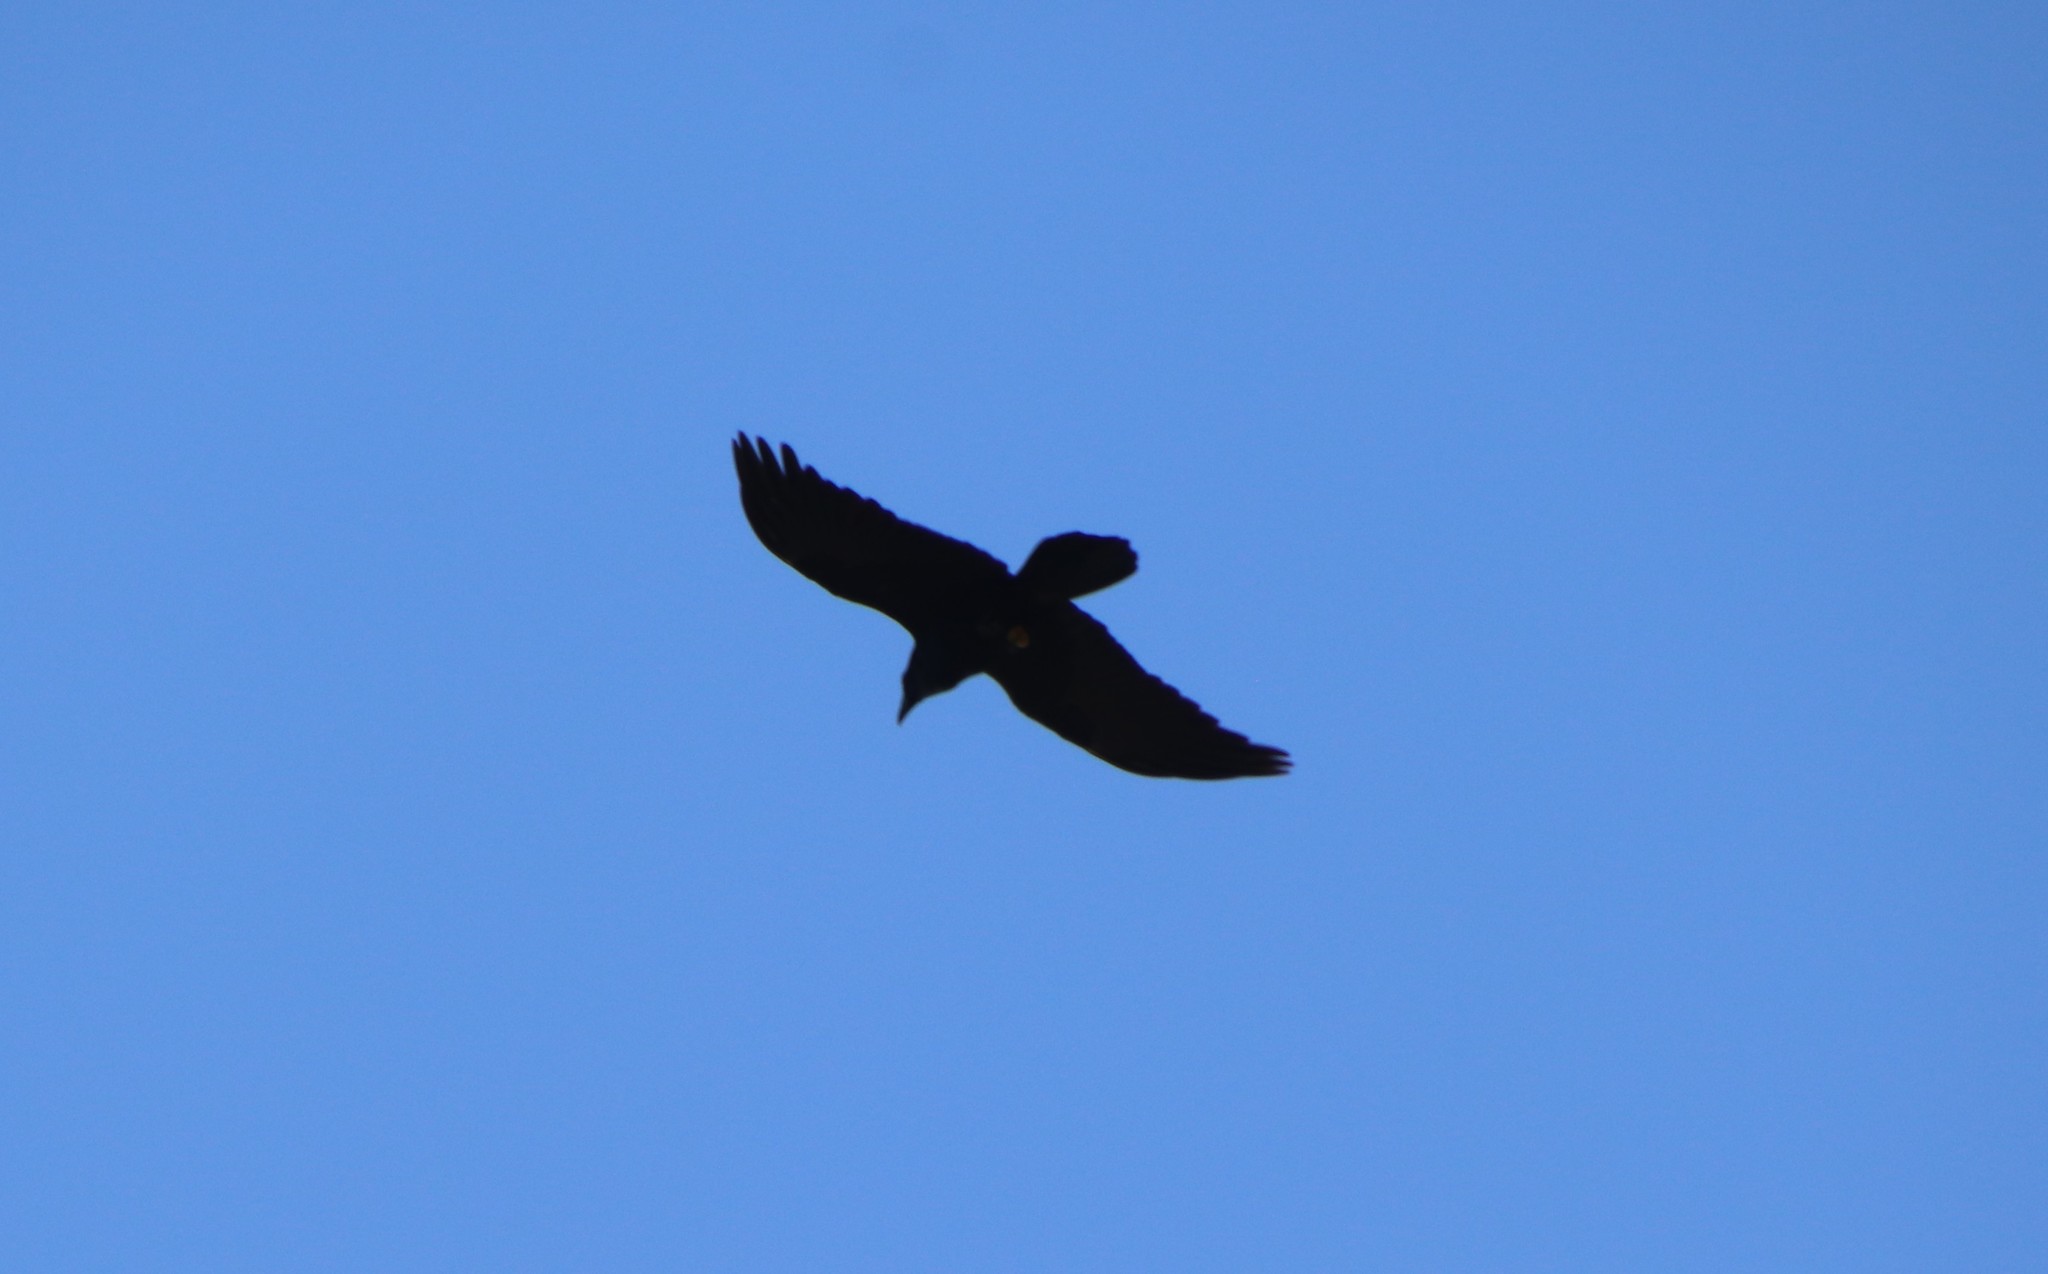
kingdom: Animalia
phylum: Chordata
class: Aves
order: Passeriformes
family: Corvidae
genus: Corvus
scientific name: Corvus corax
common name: Common raven
